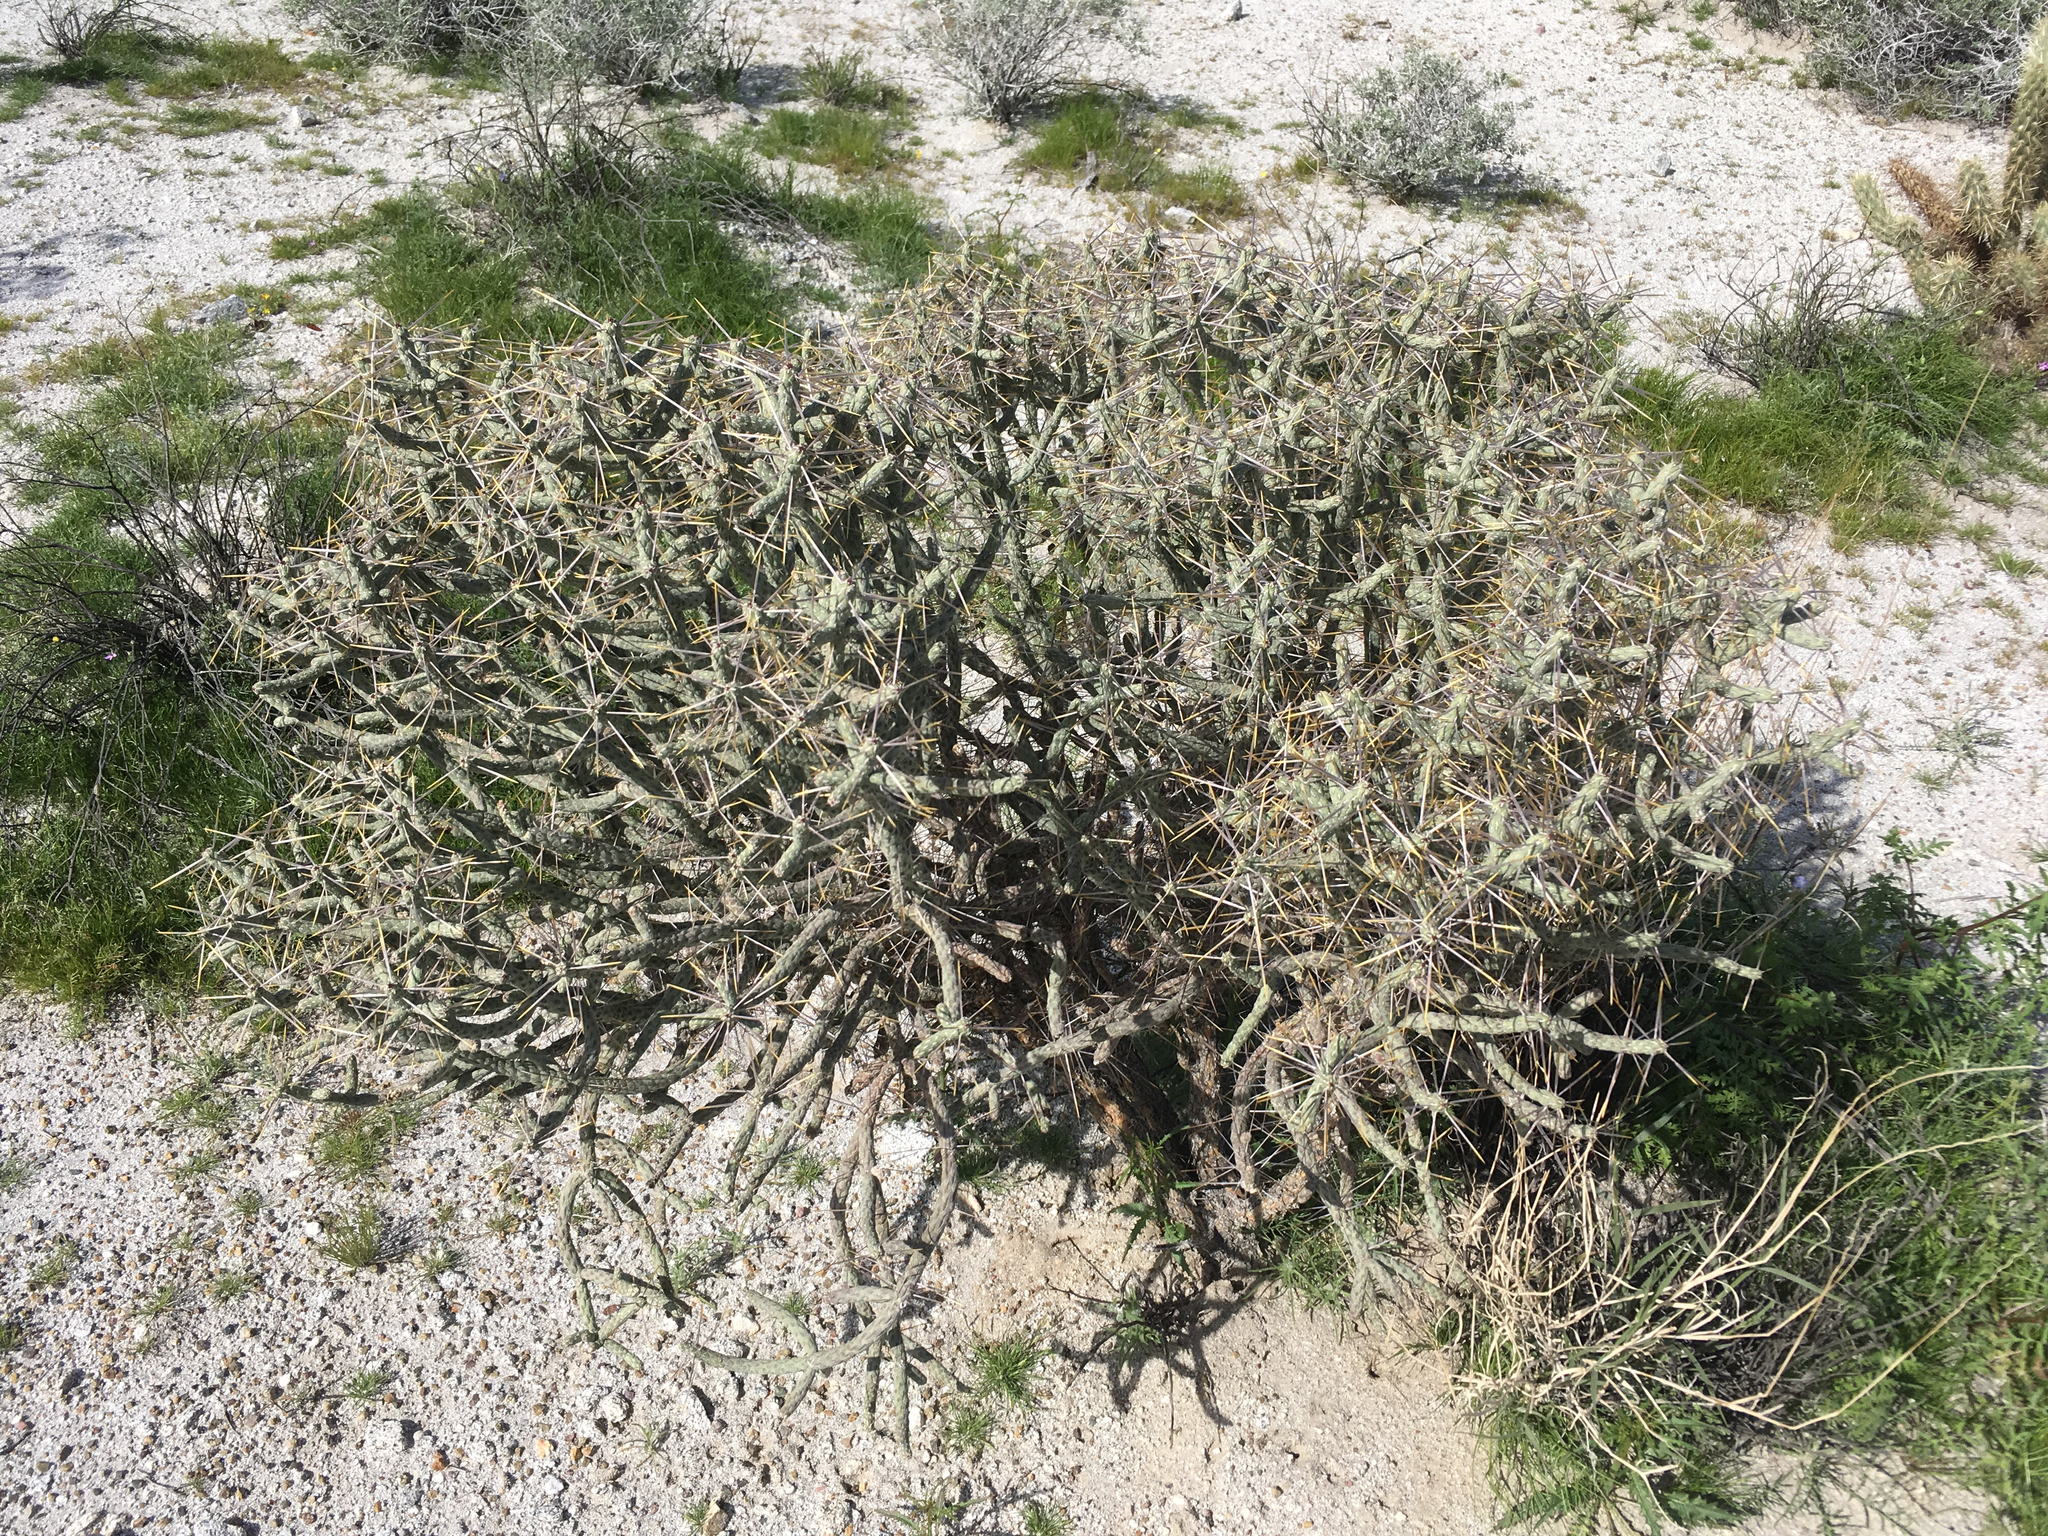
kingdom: Plantae
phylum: Tracheophyta
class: Magnoliopsida
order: Caryophyllales
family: Cactaceae
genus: Cylindropuntia
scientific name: Cylindropuntia ramosissima
